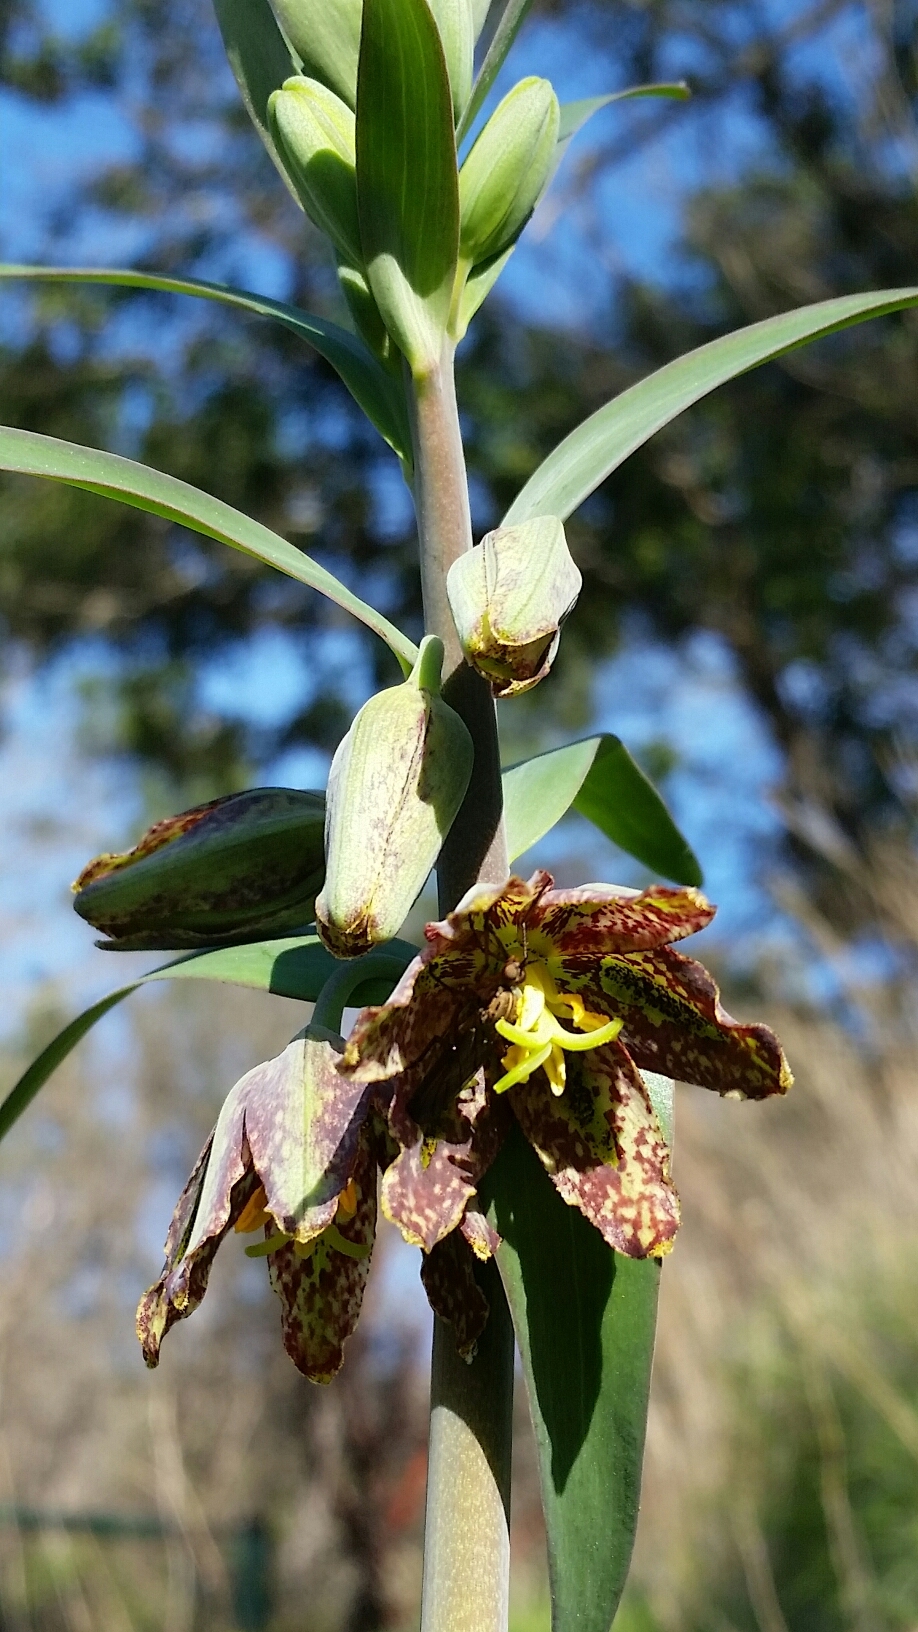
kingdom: Plantae
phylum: Tracheophyta
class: Liliopsida
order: Liliales
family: Liliaceae
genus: Fritillaria
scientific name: Fritillaria affinis
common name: Ojai fritillary
